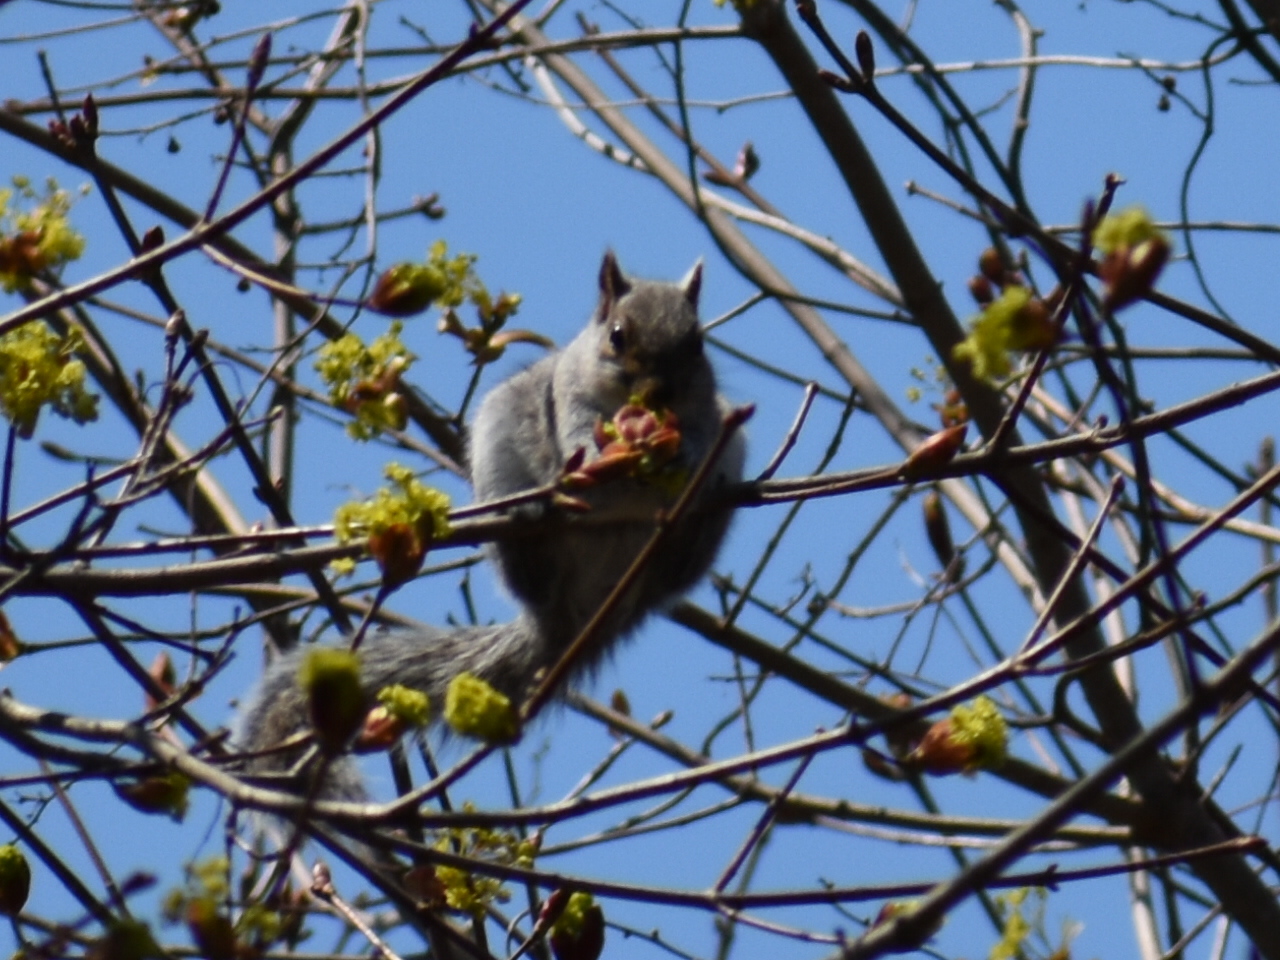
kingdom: Animalia
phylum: Chordata
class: Mammalia
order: Rodentia
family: Sciuridae
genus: Sciurus
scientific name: Sciurus carolinensis
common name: Eastern gray squirrel
